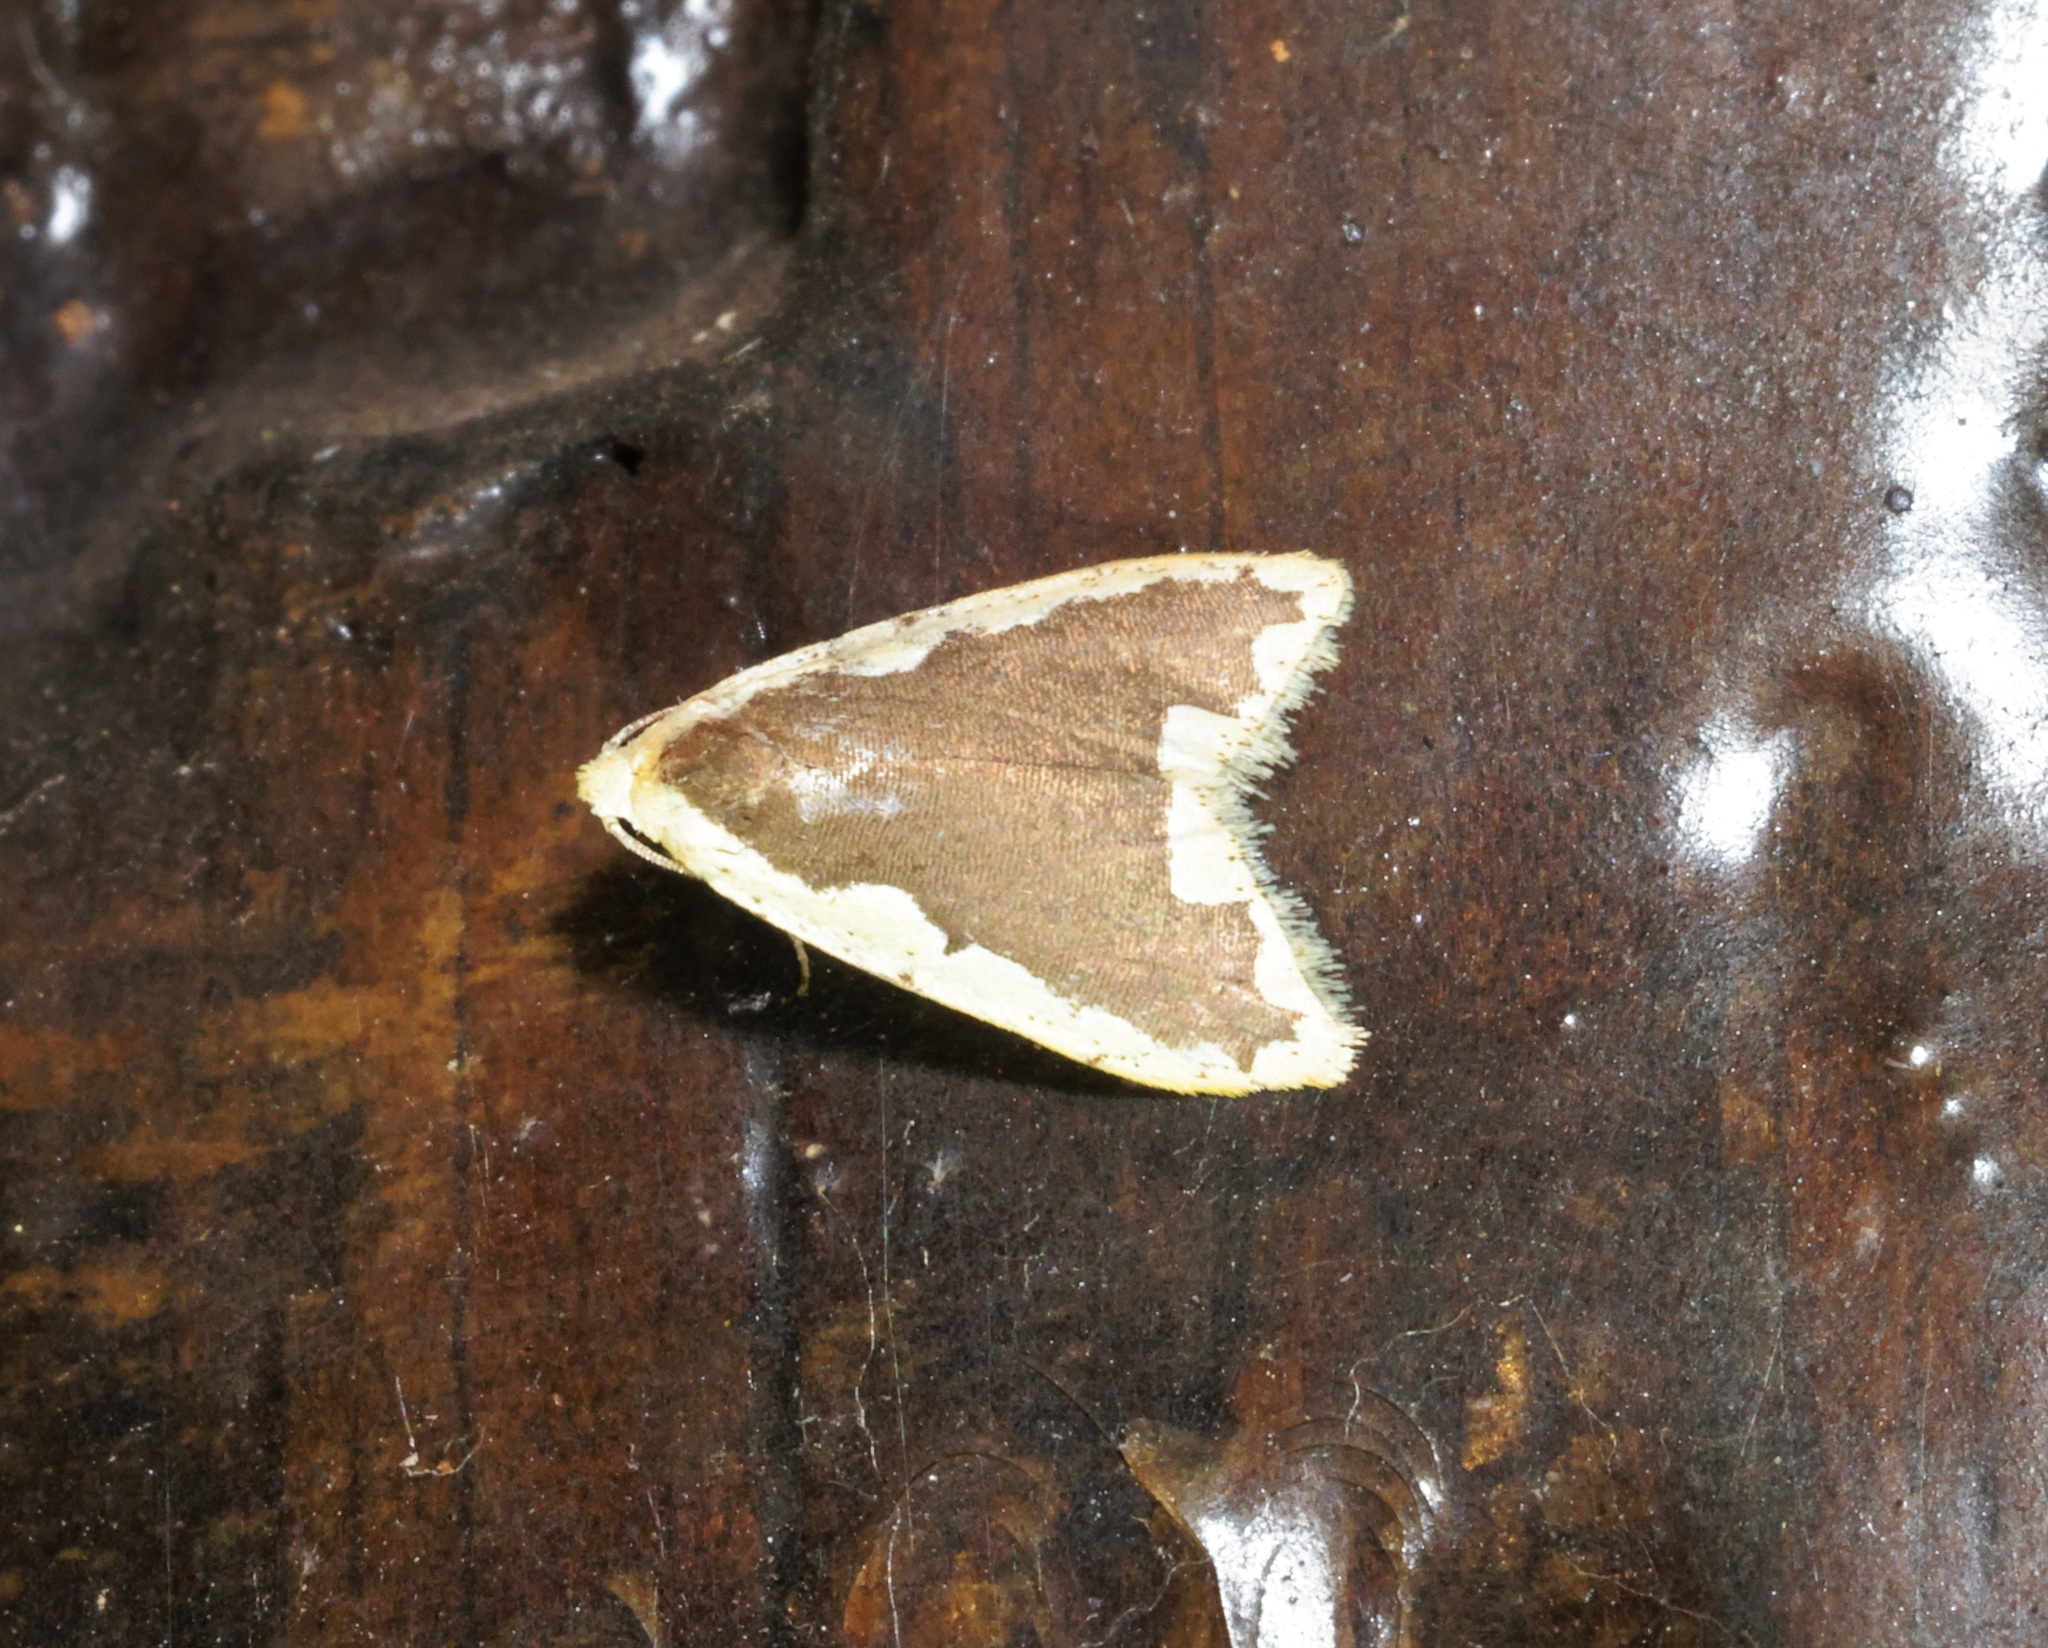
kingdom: Animalia
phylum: Arthropoda
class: Insecta
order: Lepidoptera
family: Erebidae
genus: Diduga
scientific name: Diduga flavicostata
